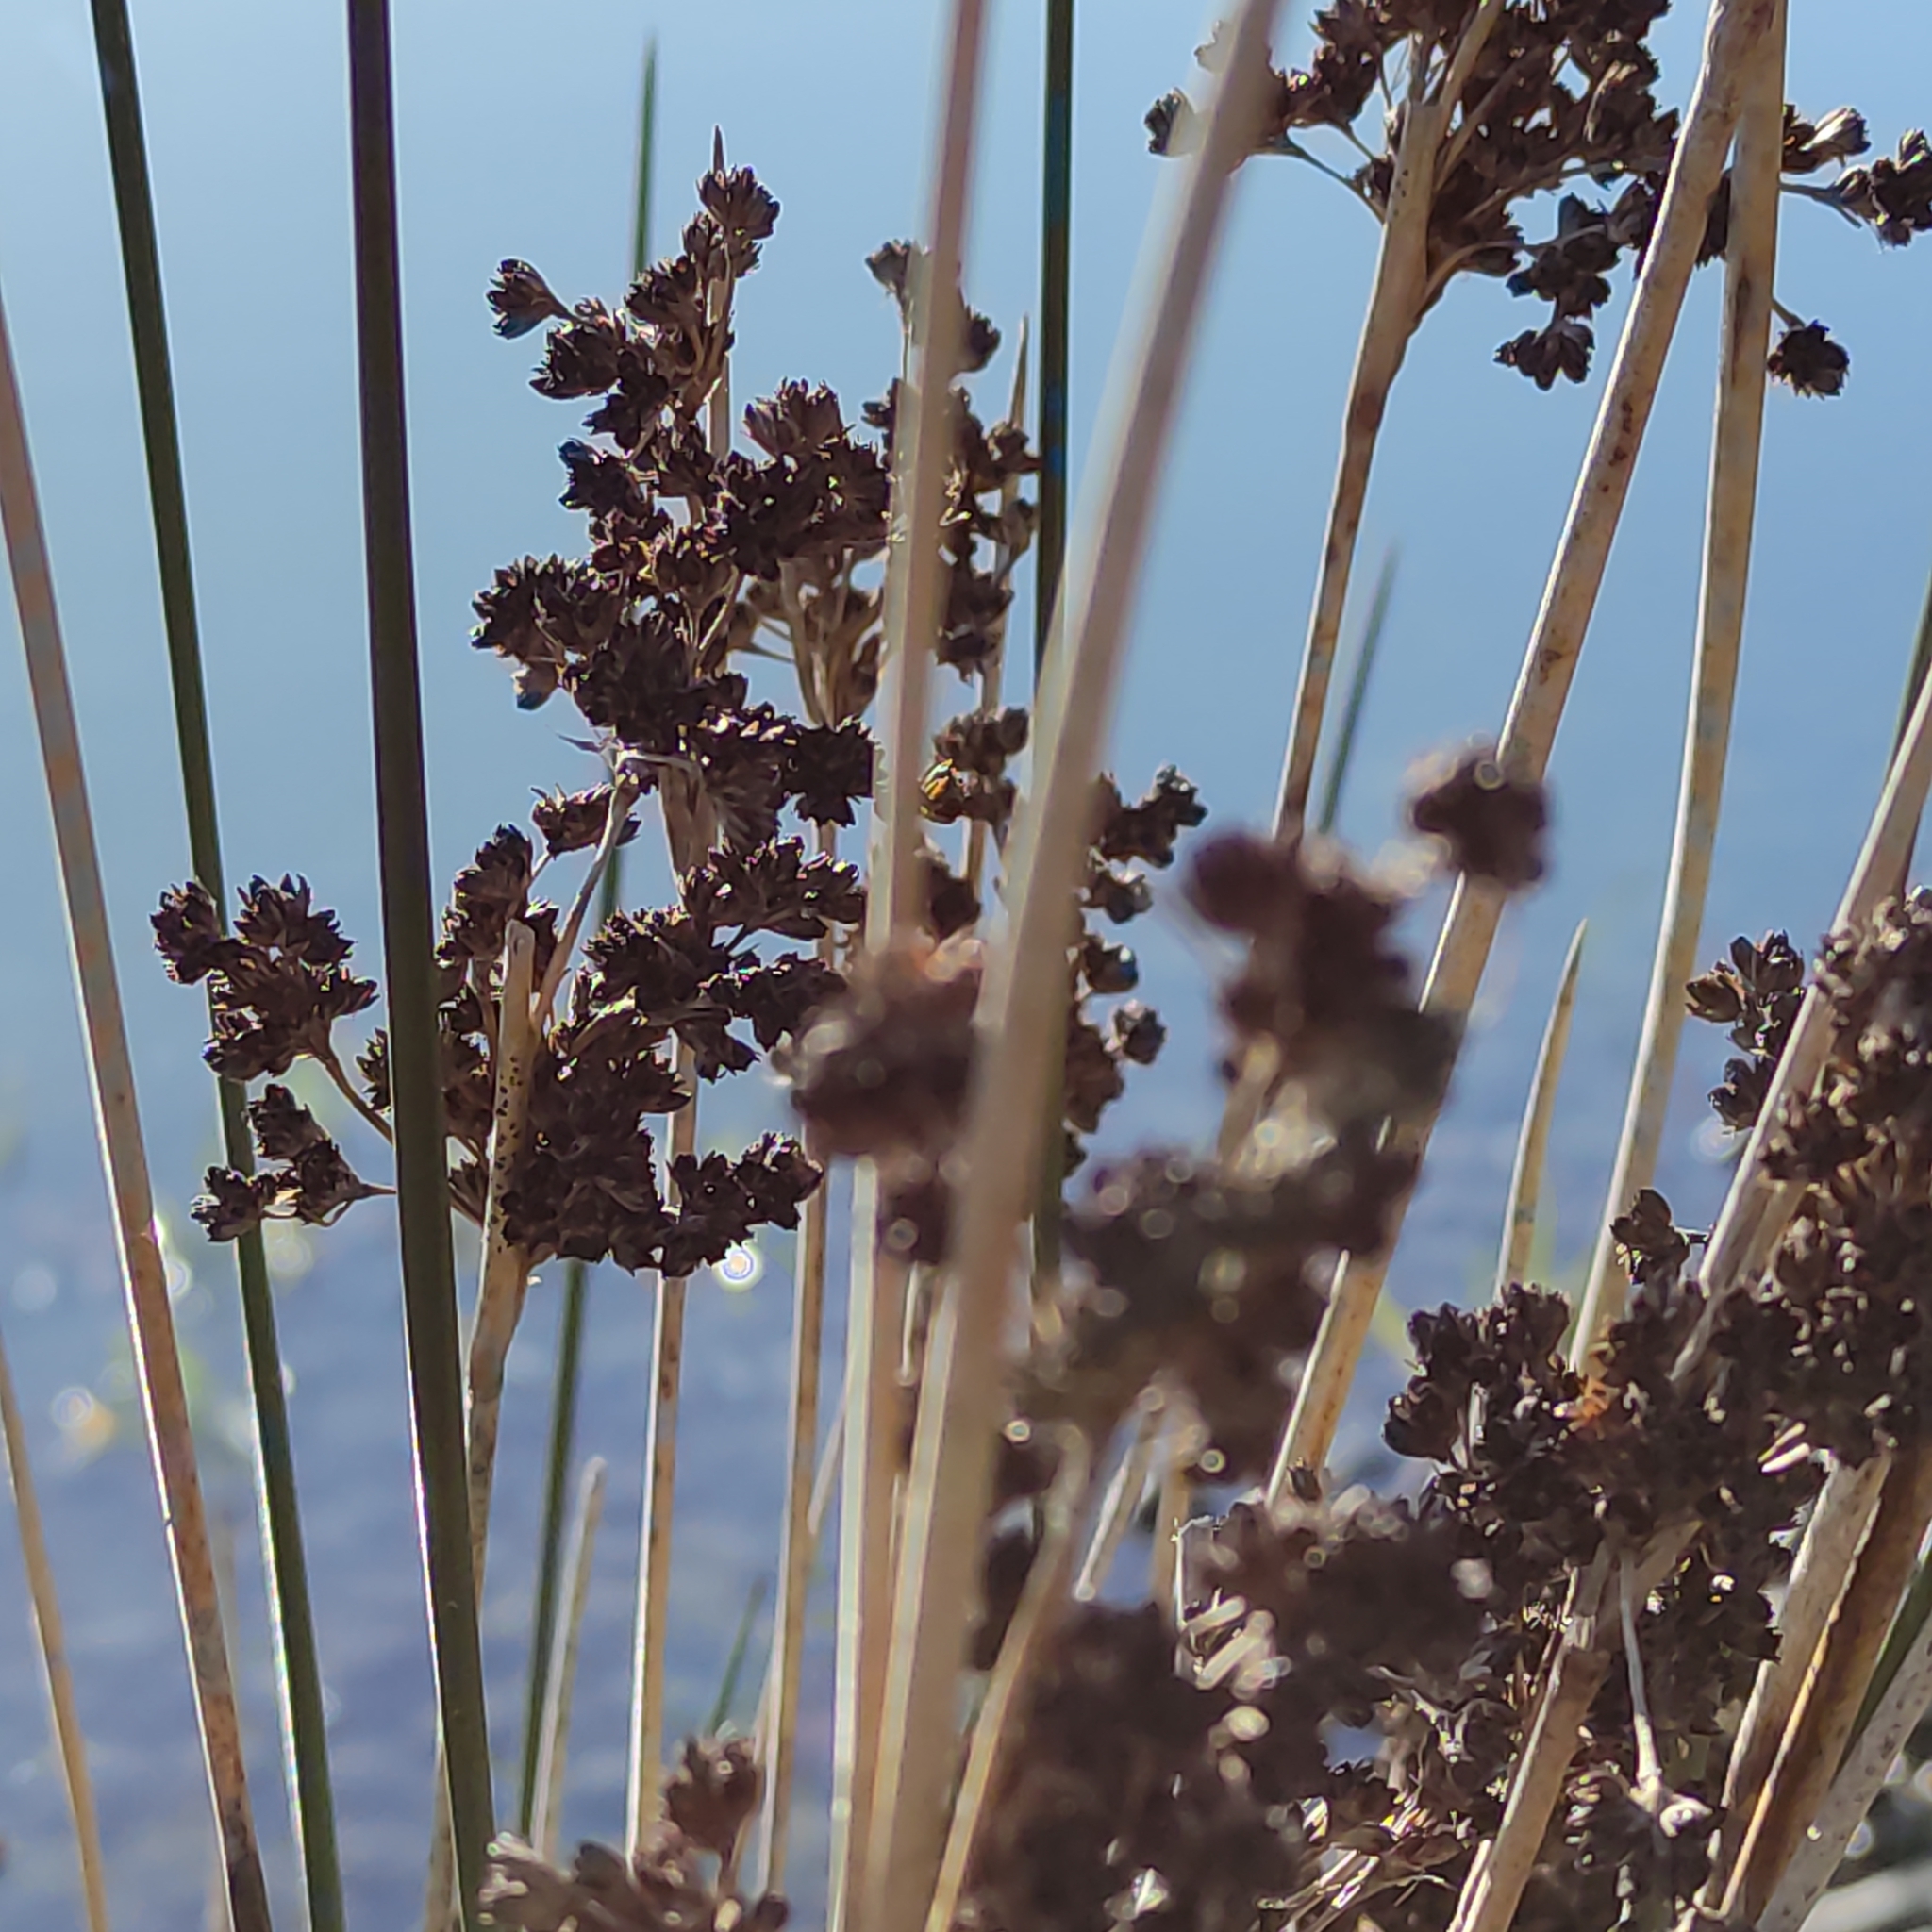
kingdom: Plantae
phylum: Tracheophyta
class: Liliopsida
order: Poales
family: Juncaceae
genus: Juncus
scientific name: Juncus kraussii
